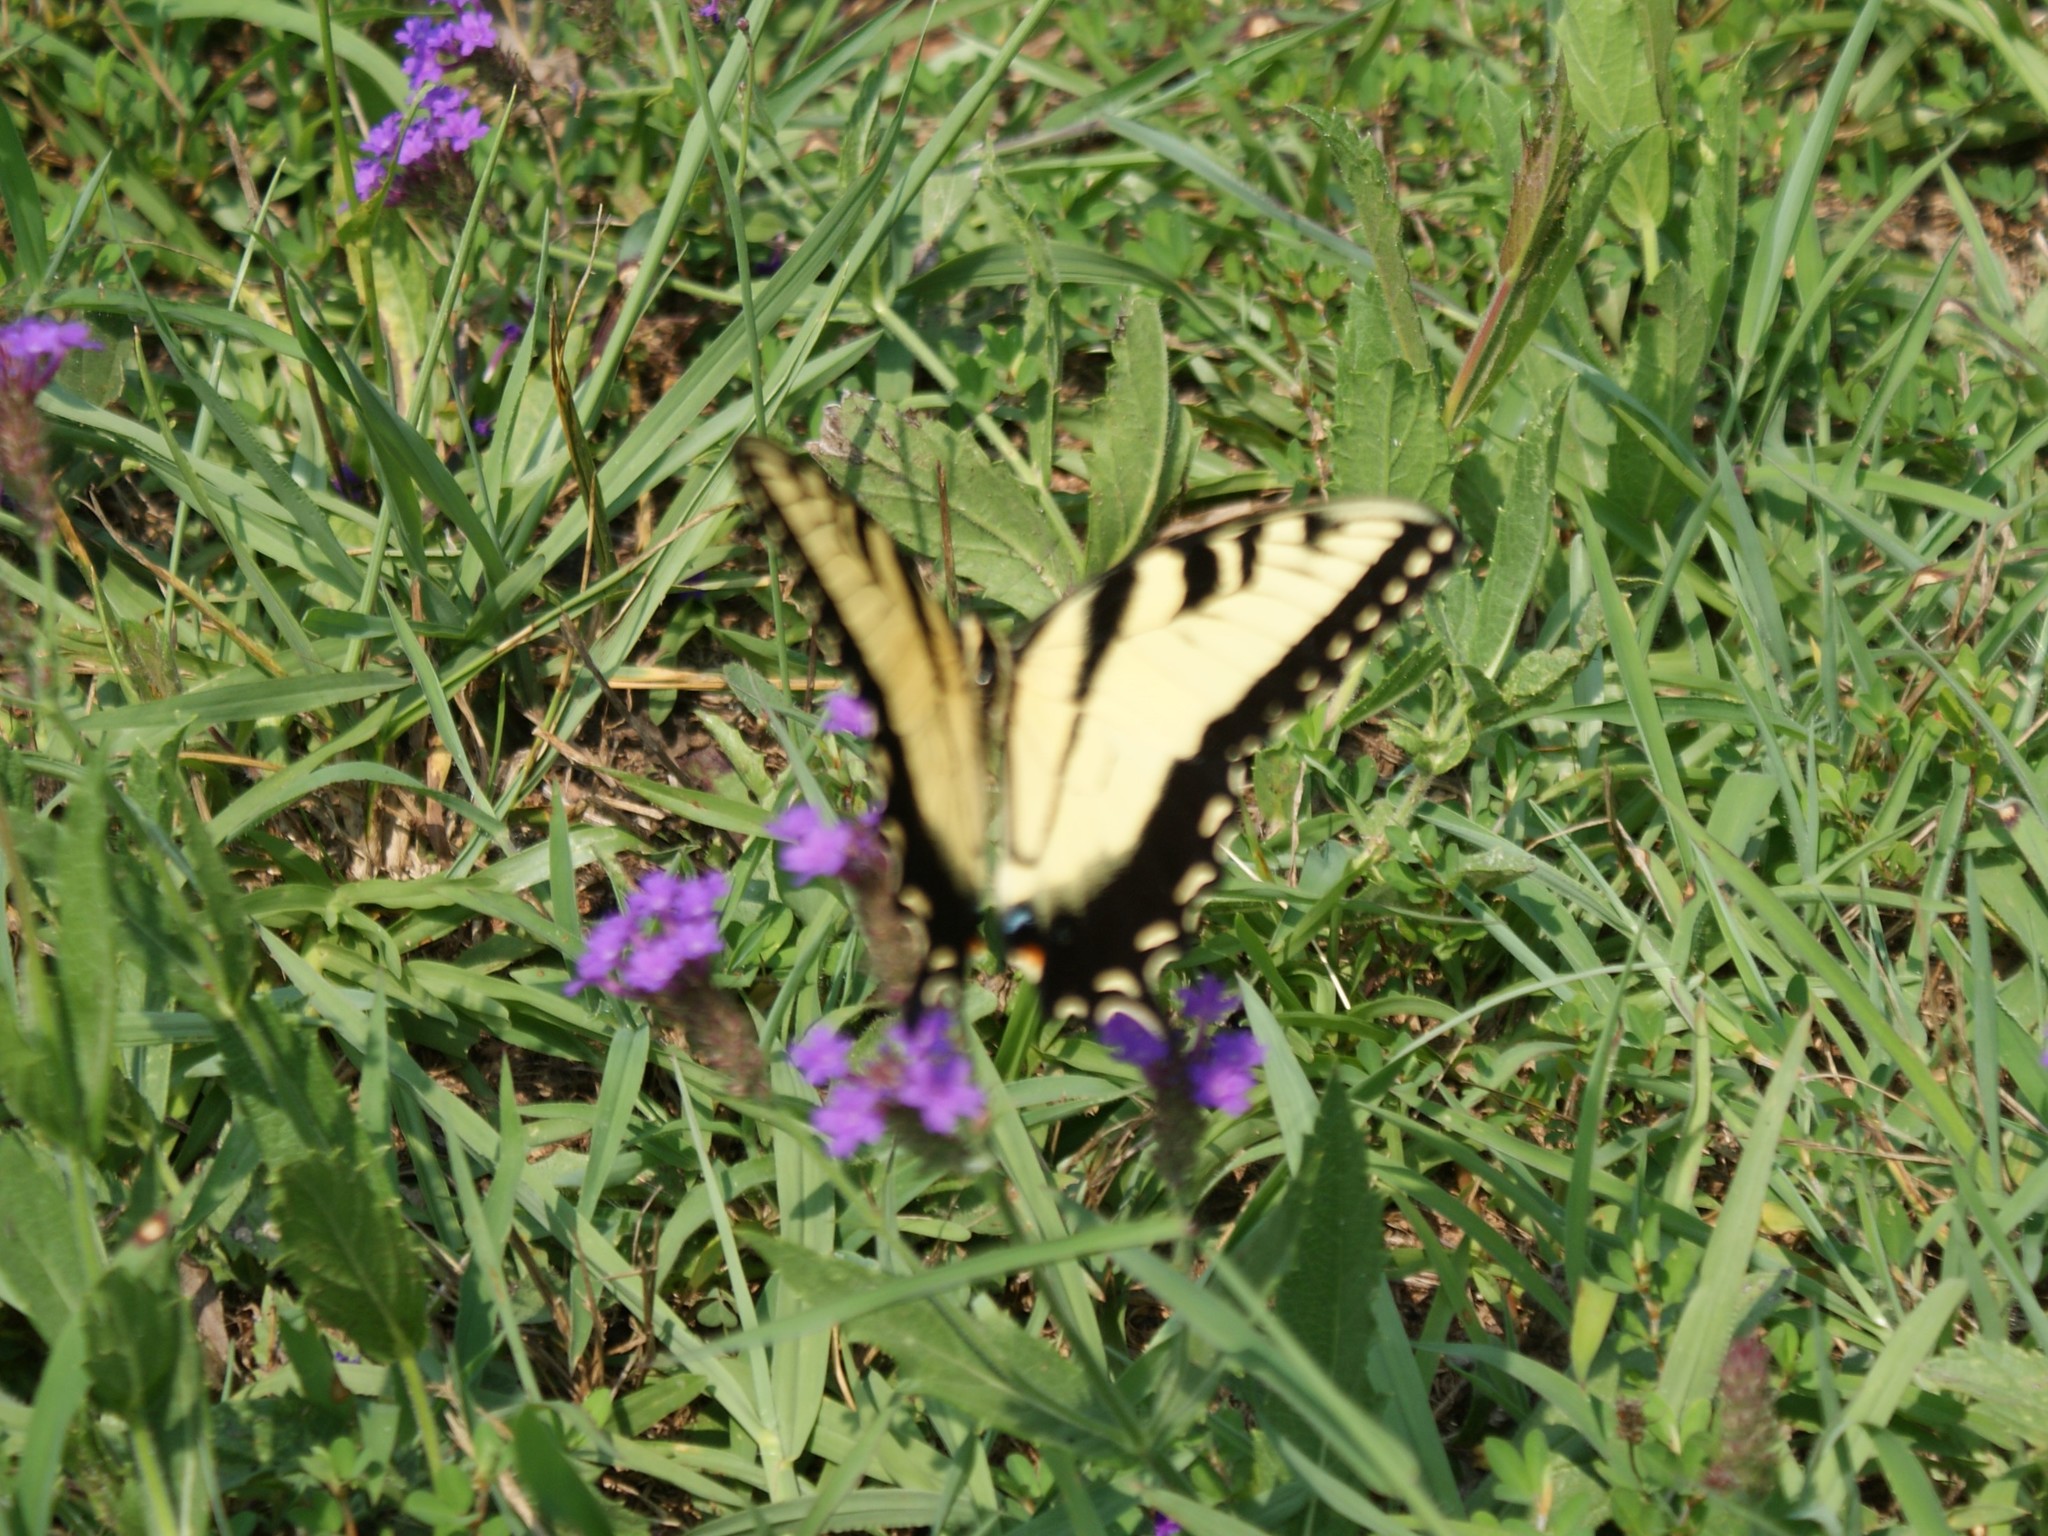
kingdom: Animalia
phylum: Arthropoda
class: Insecta
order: Lepidoptera
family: Papilionidae
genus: Papilio
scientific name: Papilio glaucus
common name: Tiger swallowtail
